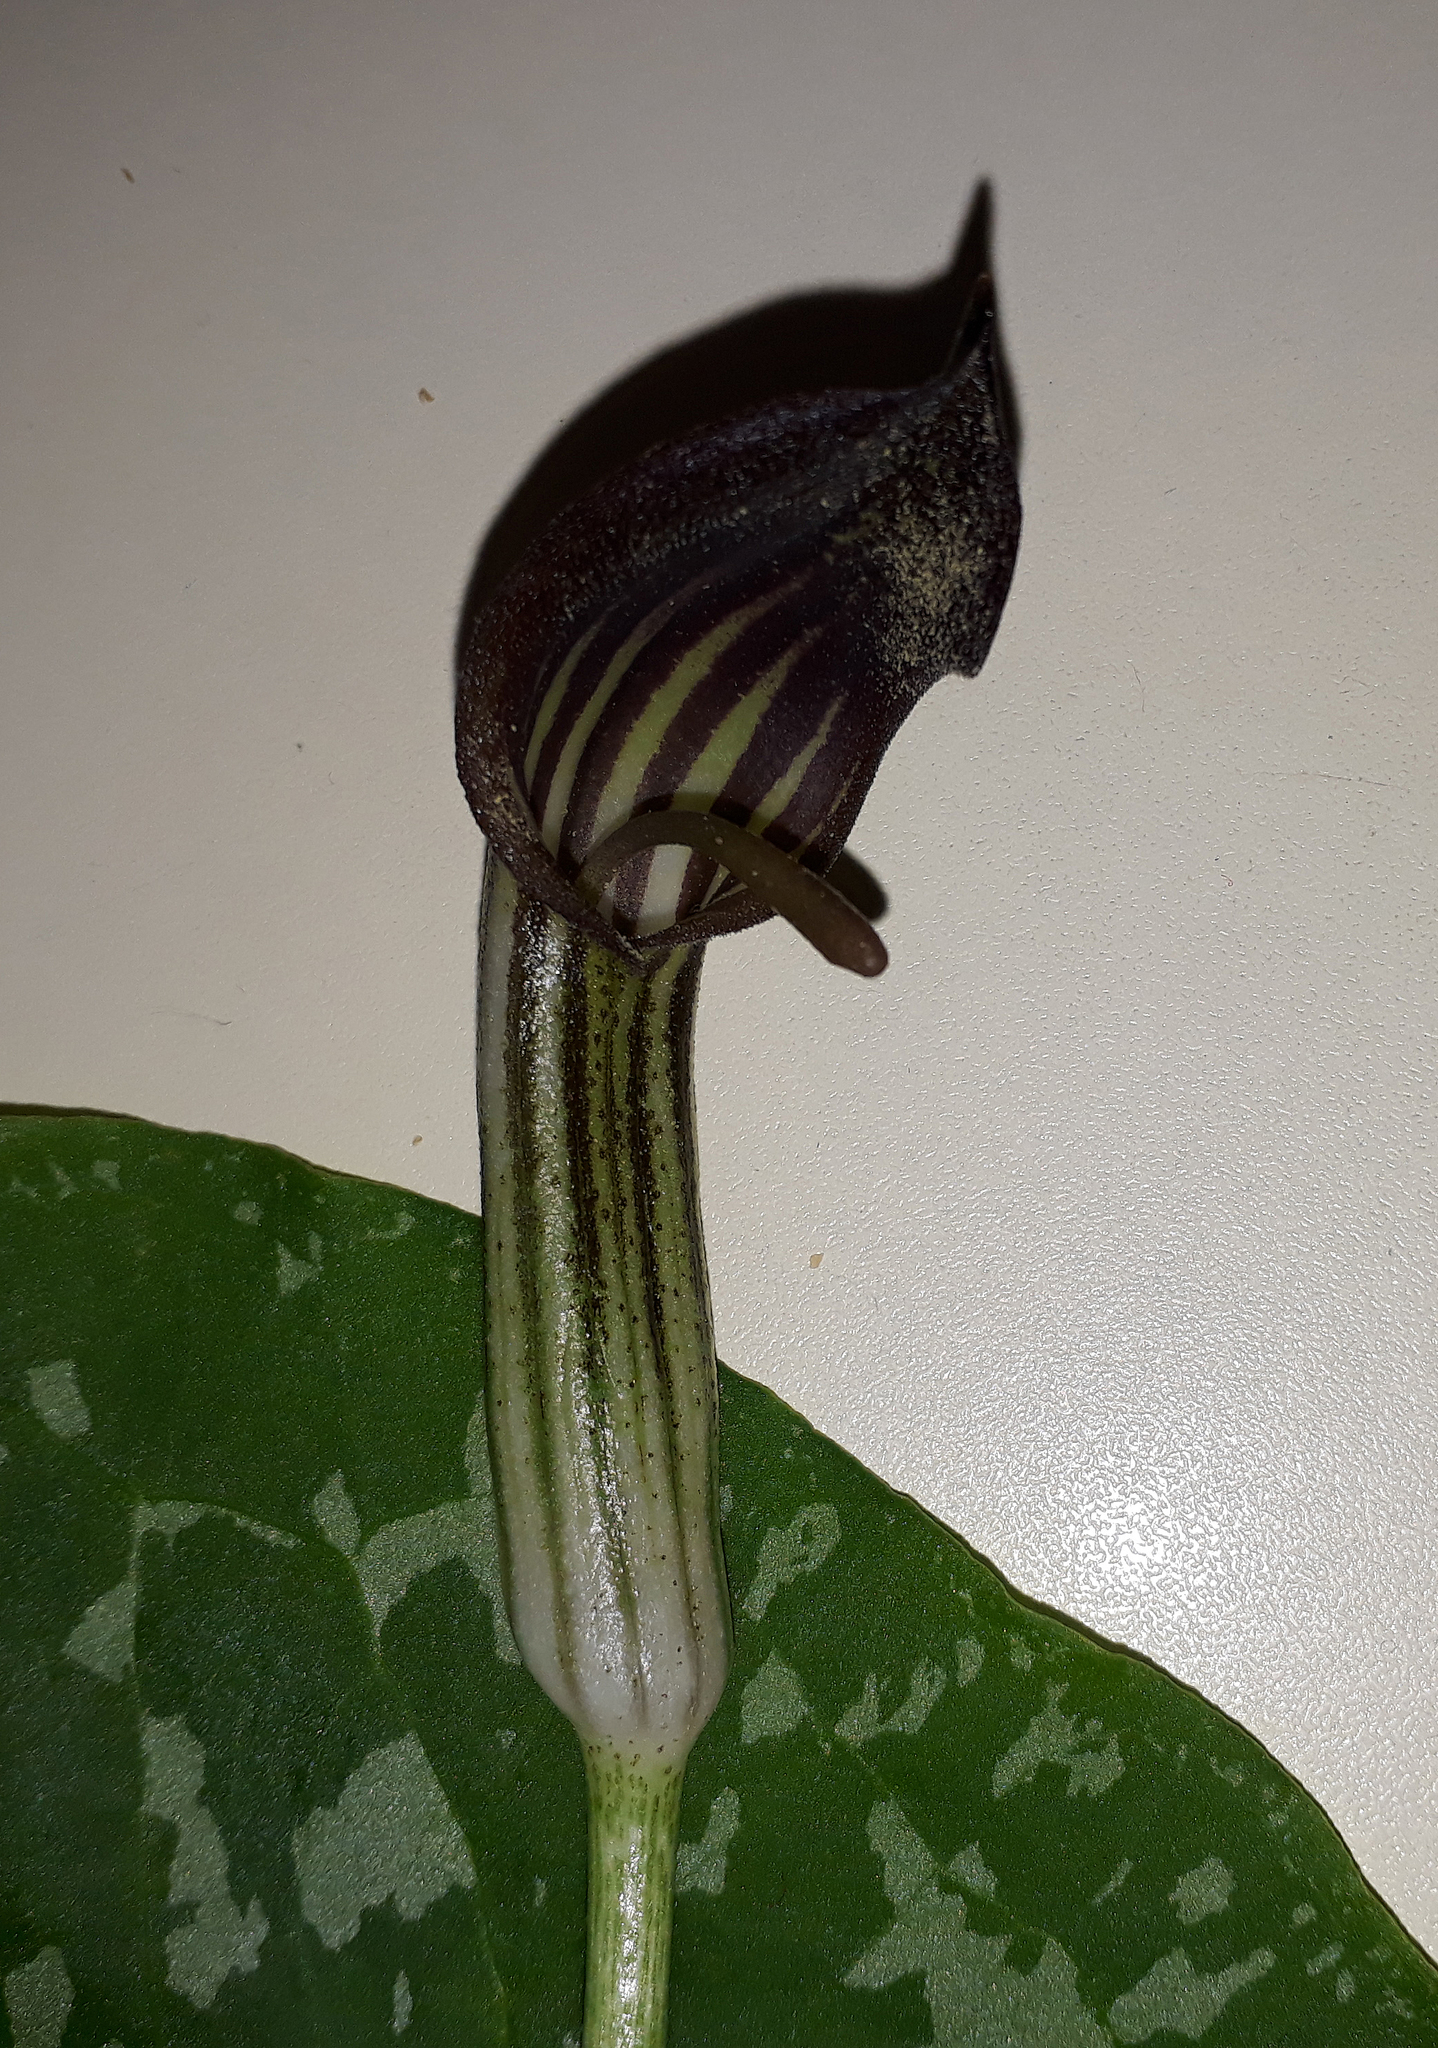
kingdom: Plantae
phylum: Tracheophyta
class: Liliopsida
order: Alismatales
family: Araceae
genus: Arisarum
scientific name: Arisarum vulgare
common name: Common arisarum
